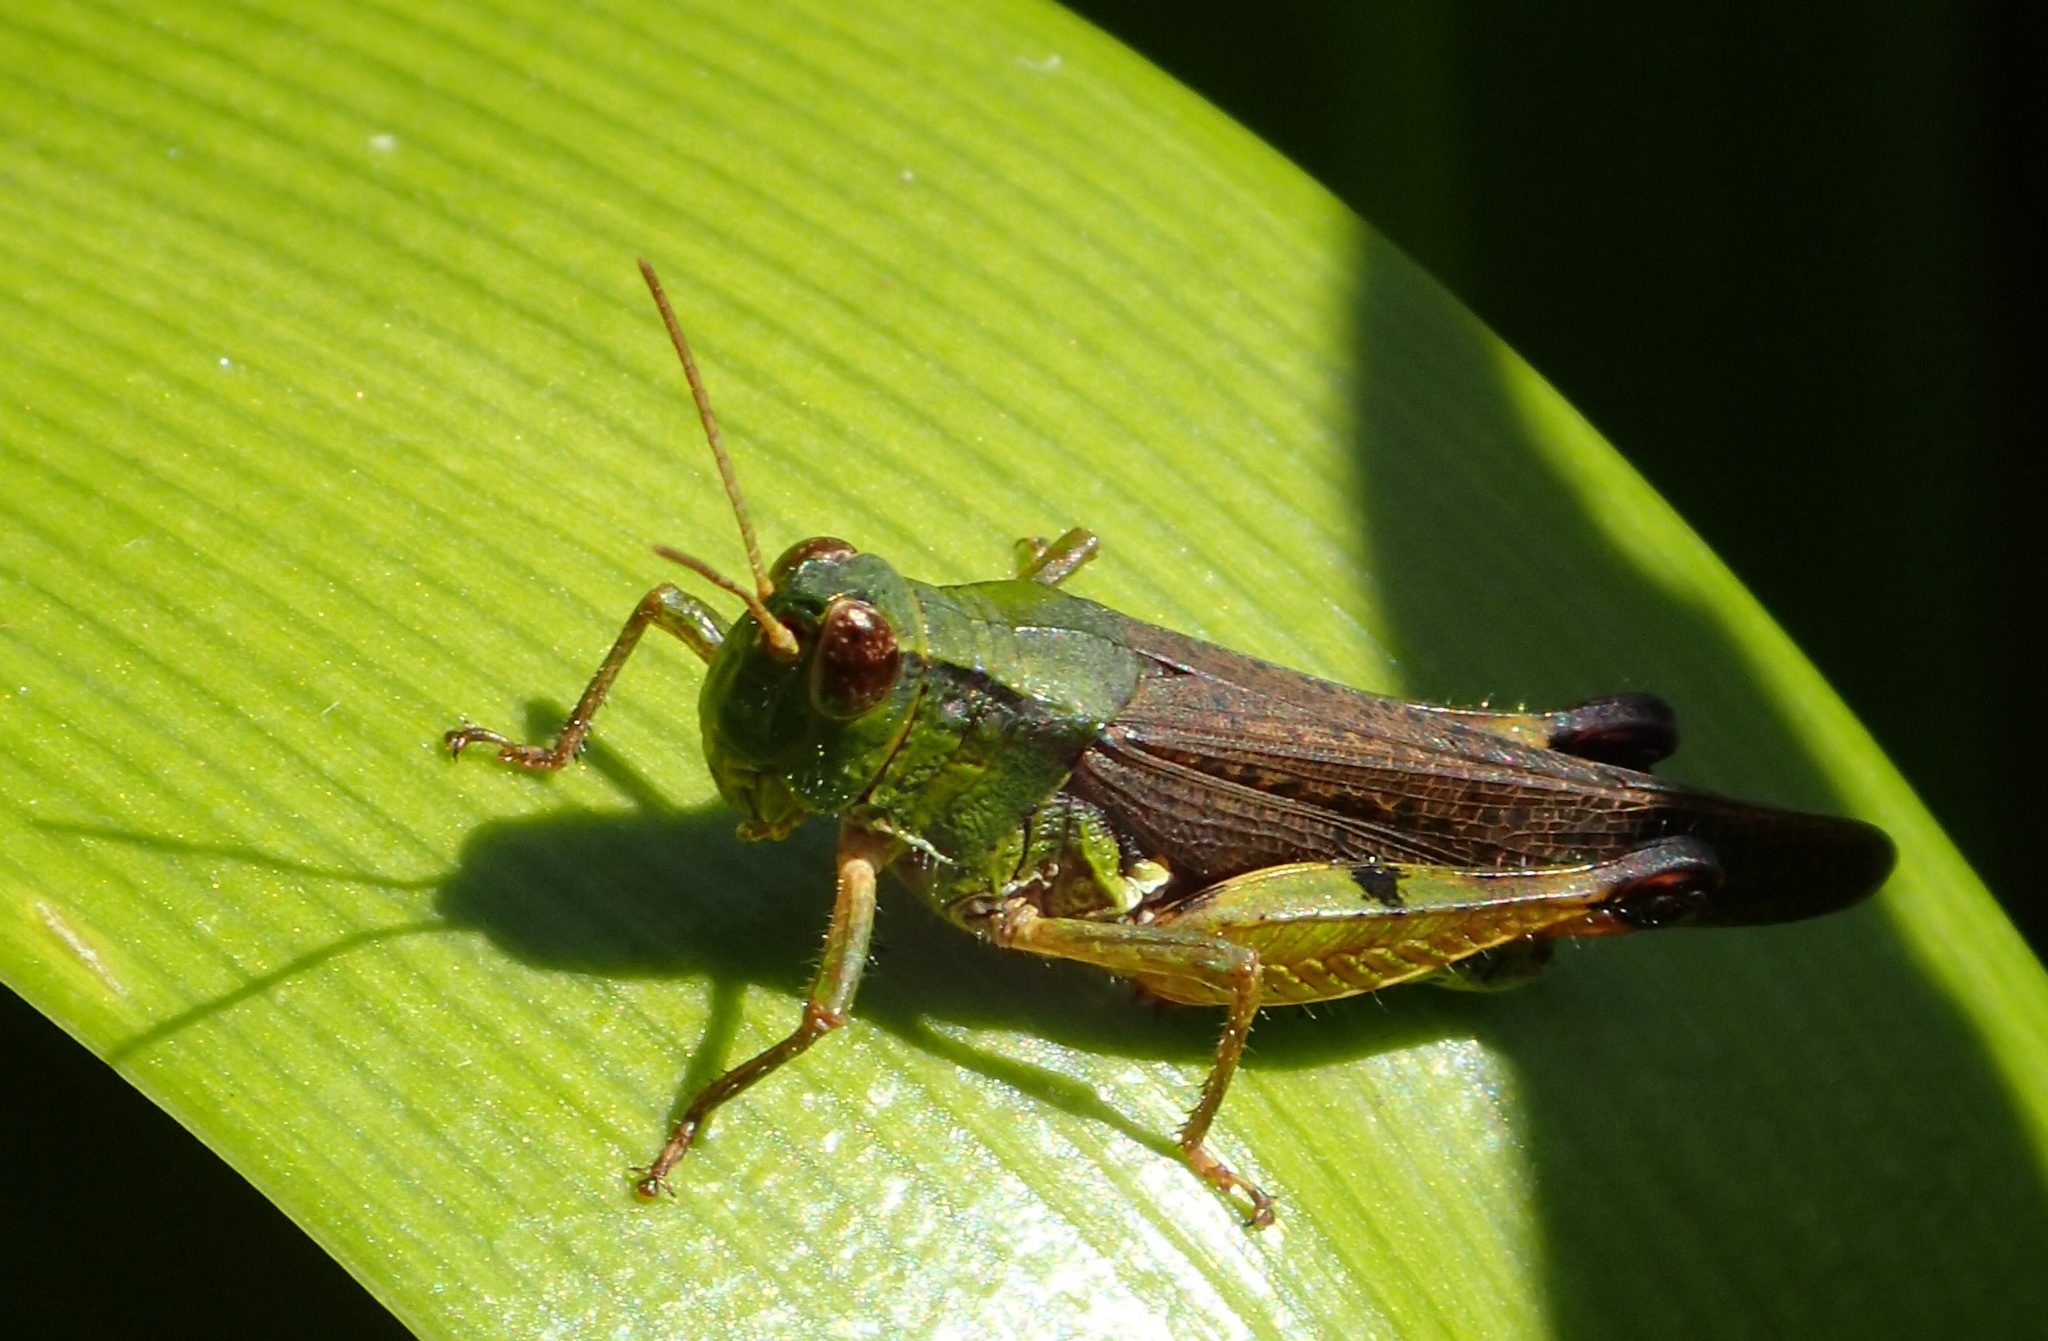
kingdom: Animalia
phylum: Arthropoda
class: Insecta
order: Orthoptera
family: Acrididae
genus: Phaulacridium
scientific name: Phaulacridium vittatum
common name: Wingless grasshopper
